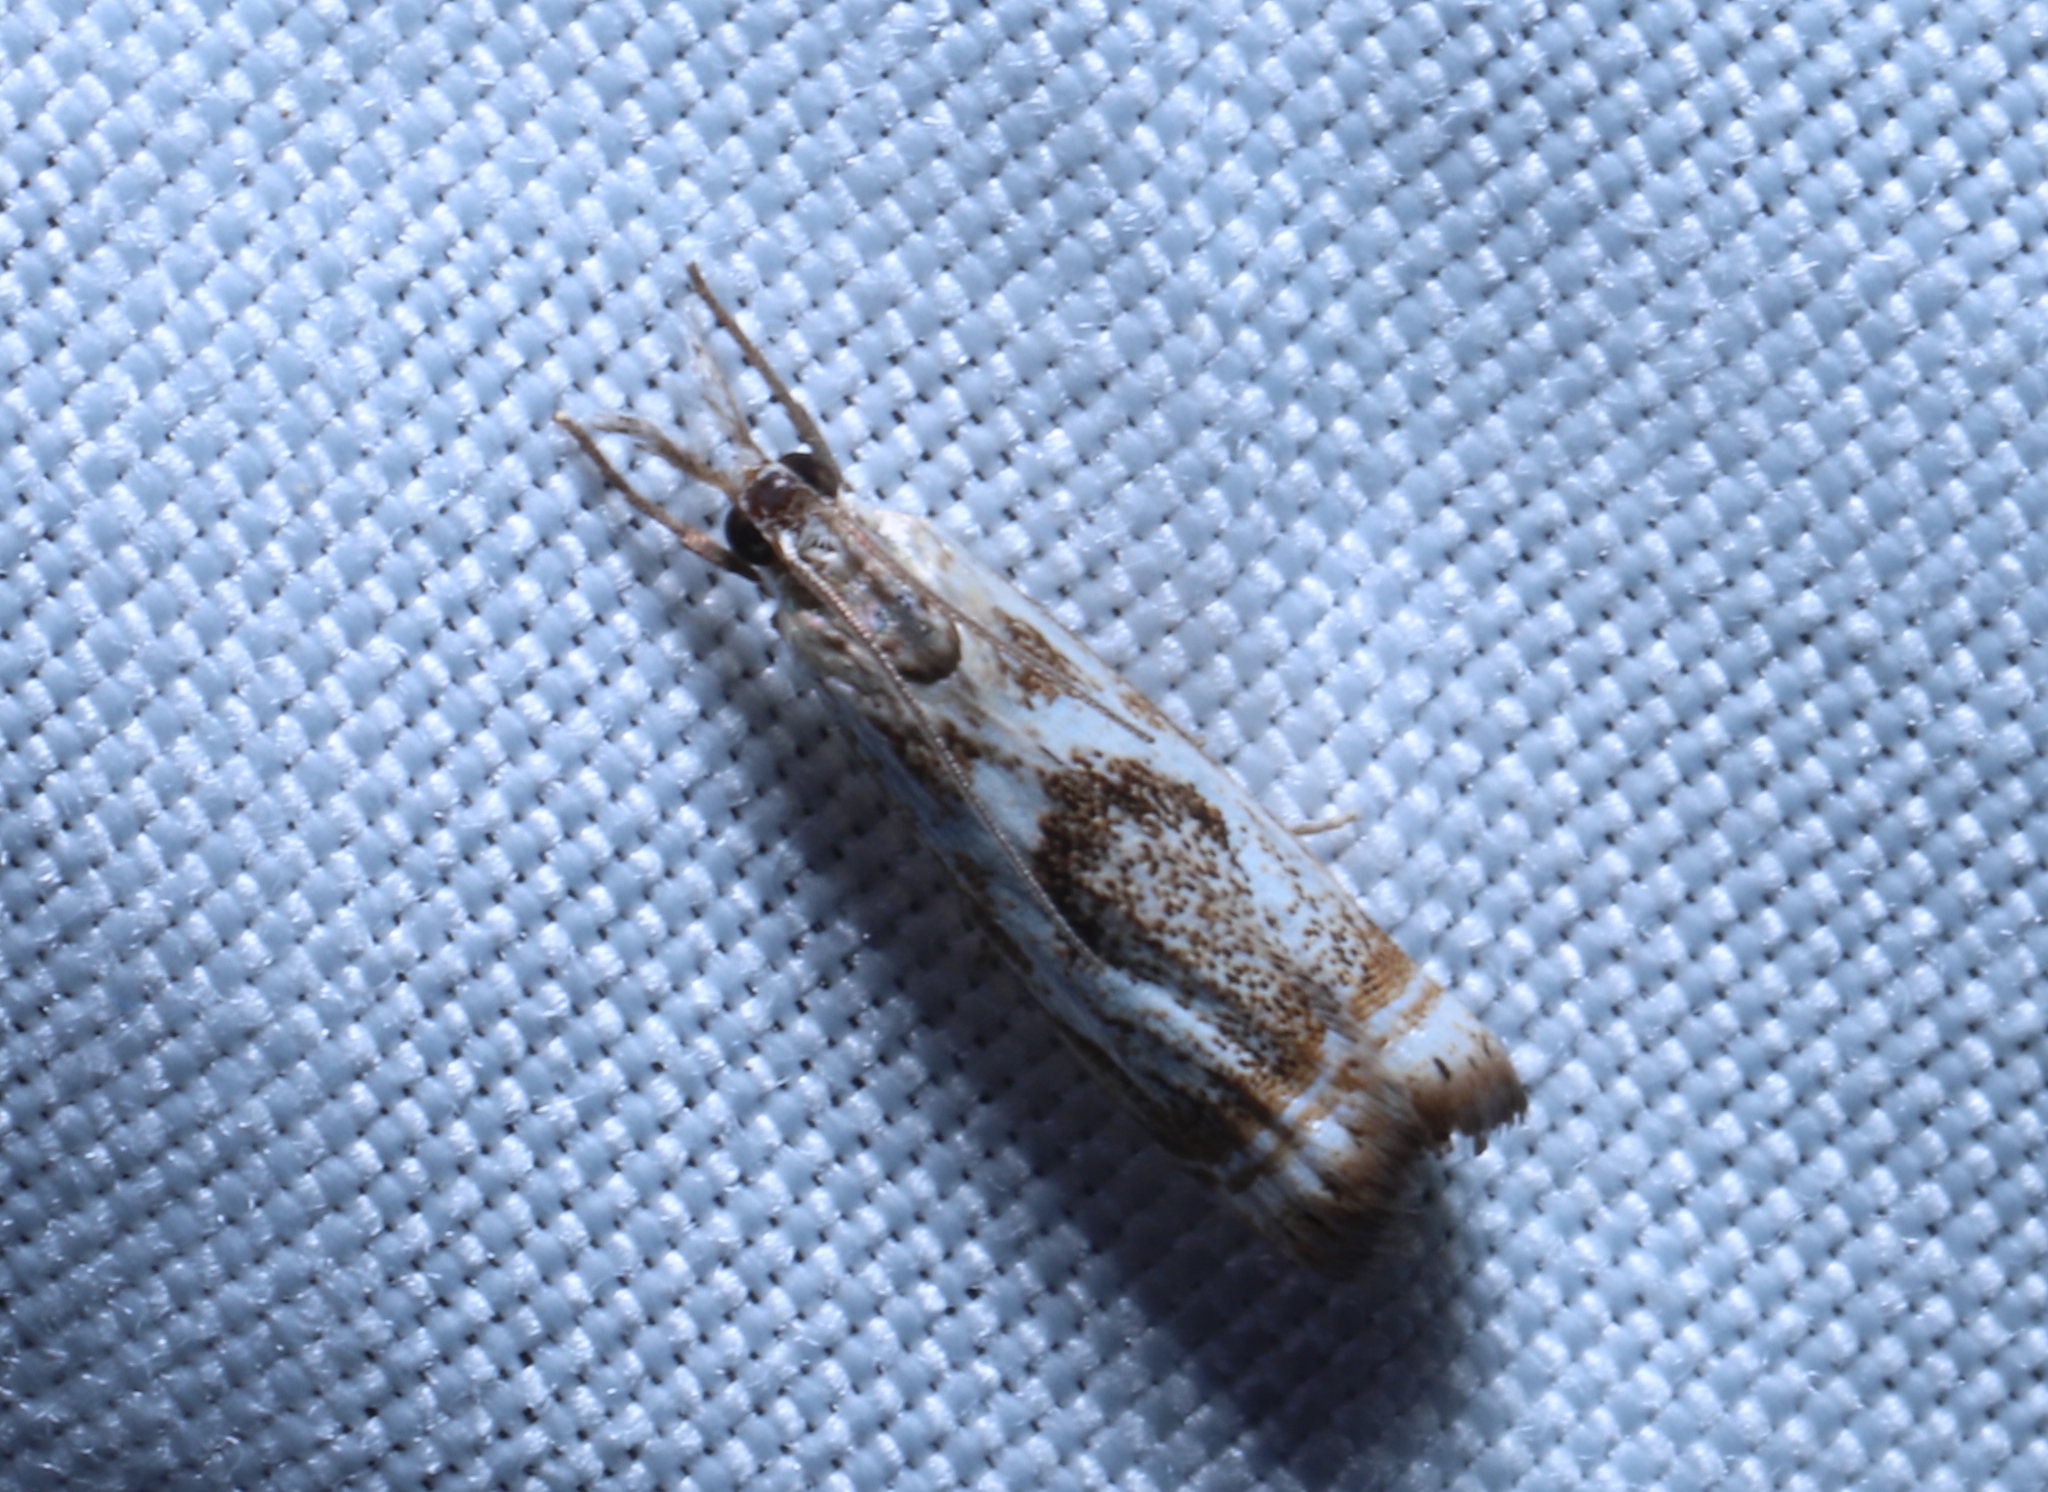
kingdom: Animalia
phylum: Arthropoda
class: Insecta
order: Lepidoptera
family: Crambidae
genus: Microcrambus
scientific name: Microcrambus elegans
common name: Elegant grass-veneer
